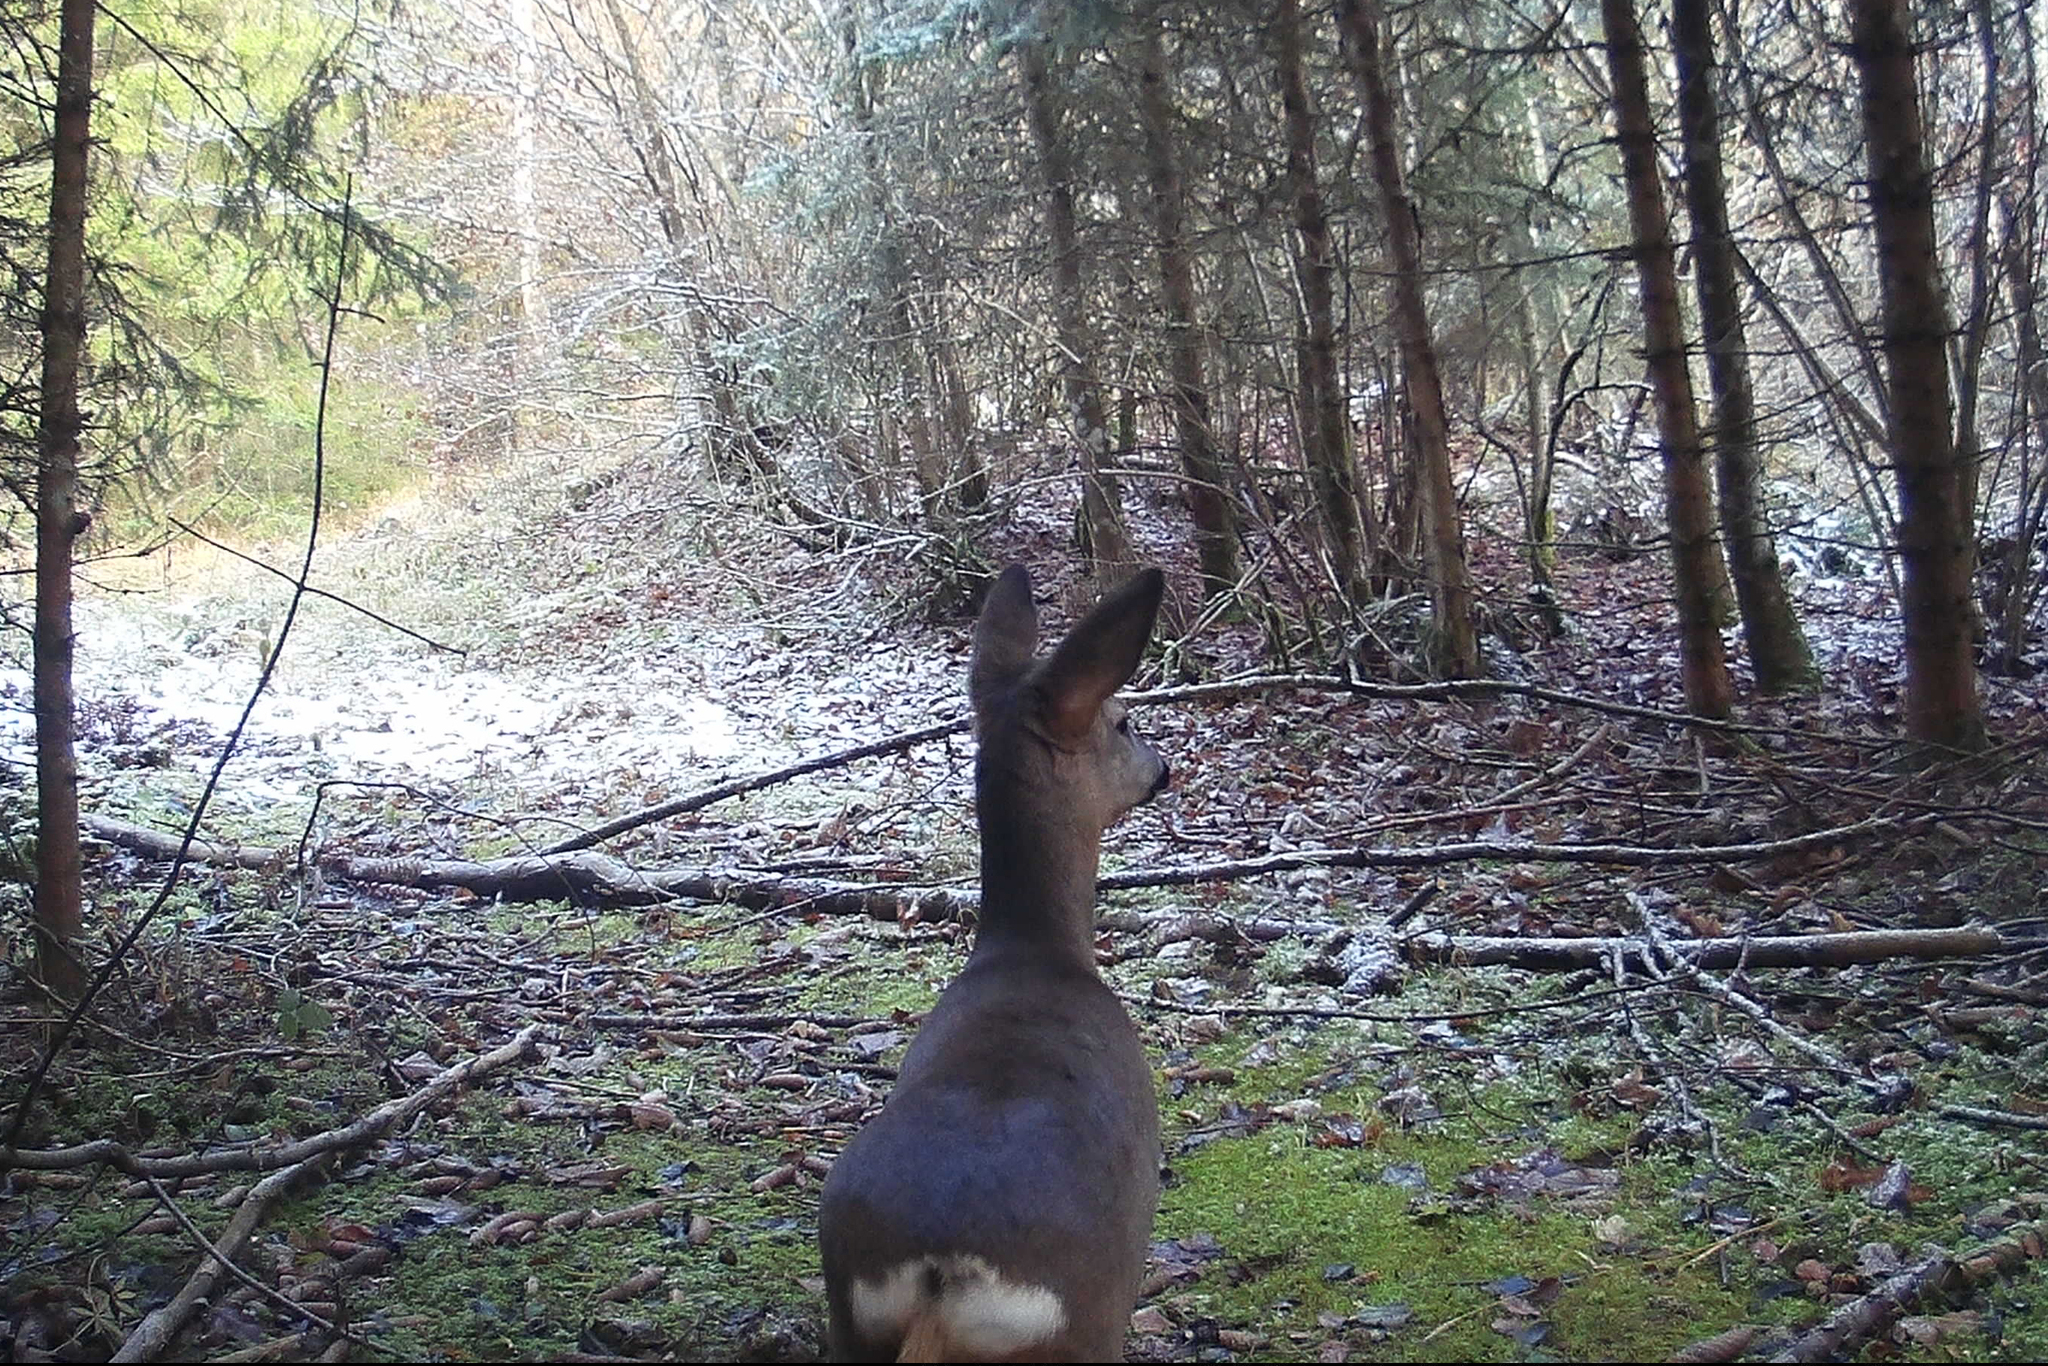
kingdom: Animalia
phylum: Chordata
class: Mammalia
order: Artiodactyla
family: Cervidae
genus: Capreolus
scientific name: Capreolus capreolus
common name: Western roe deer
